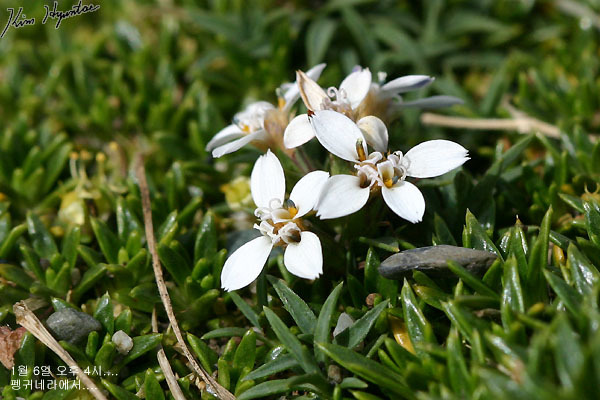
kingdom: Plantae
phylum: Tracheophyta
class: Magnoliopsida
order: Asterales
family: Asteraceae
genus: Nassauvia
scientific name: Nassauvia darwinii
